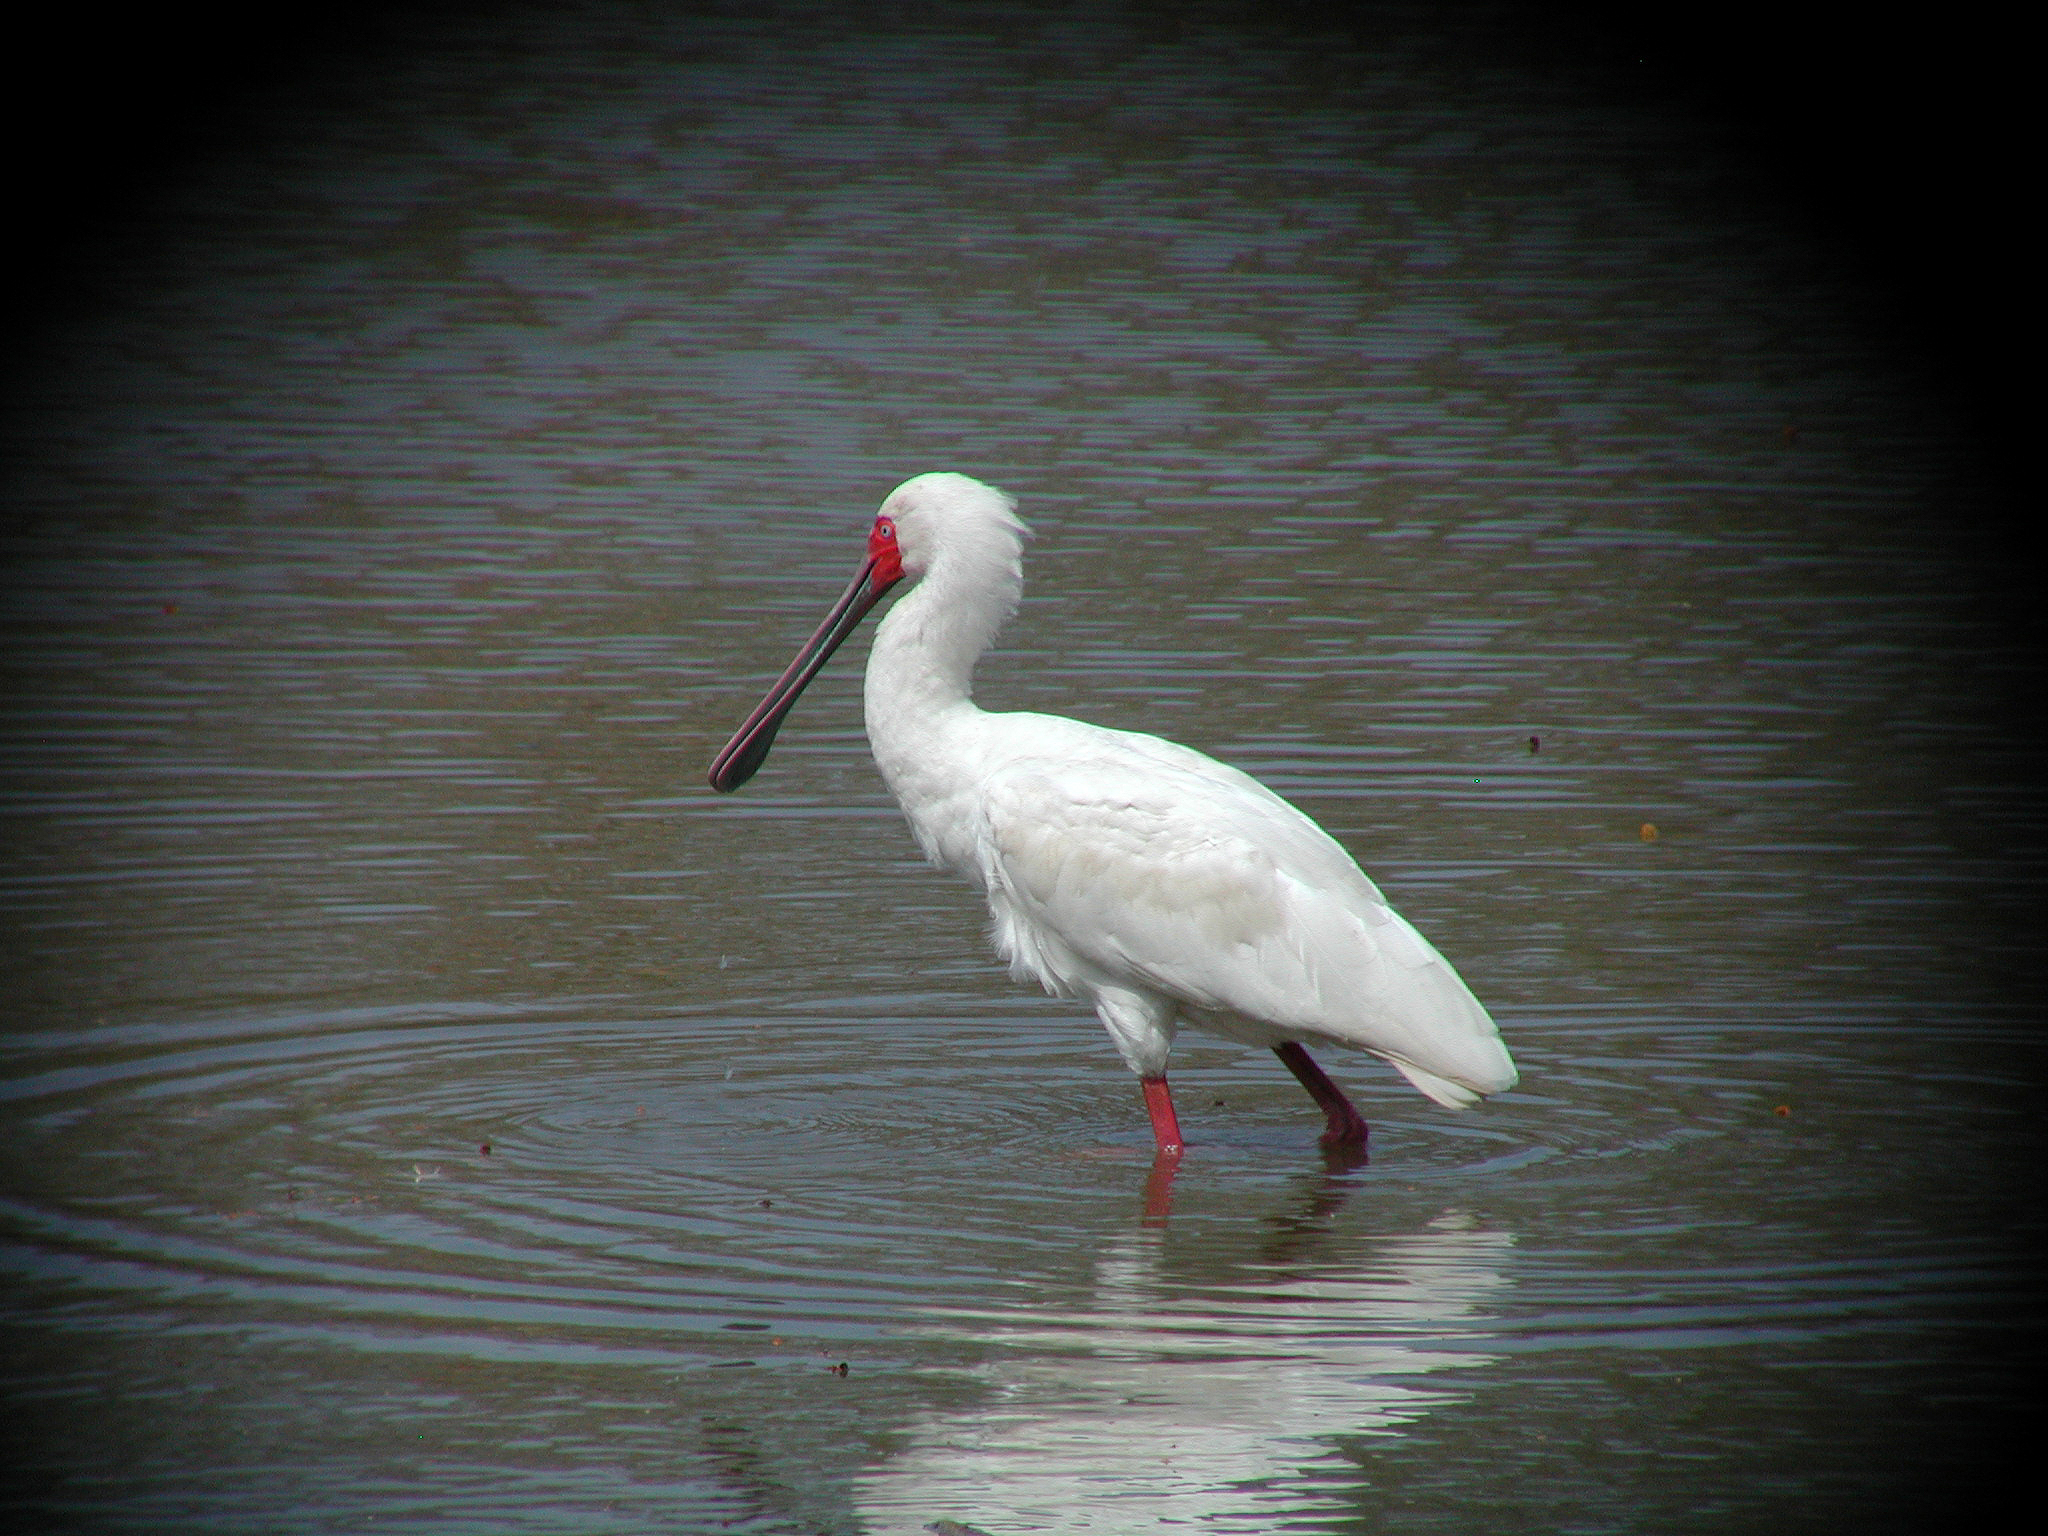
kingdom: Animalia
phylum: Chordata
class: Aves
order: Pelecaniformes
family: Threskiornithidae
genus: Platalea
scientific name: Platalea alba
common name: African spoonbill
